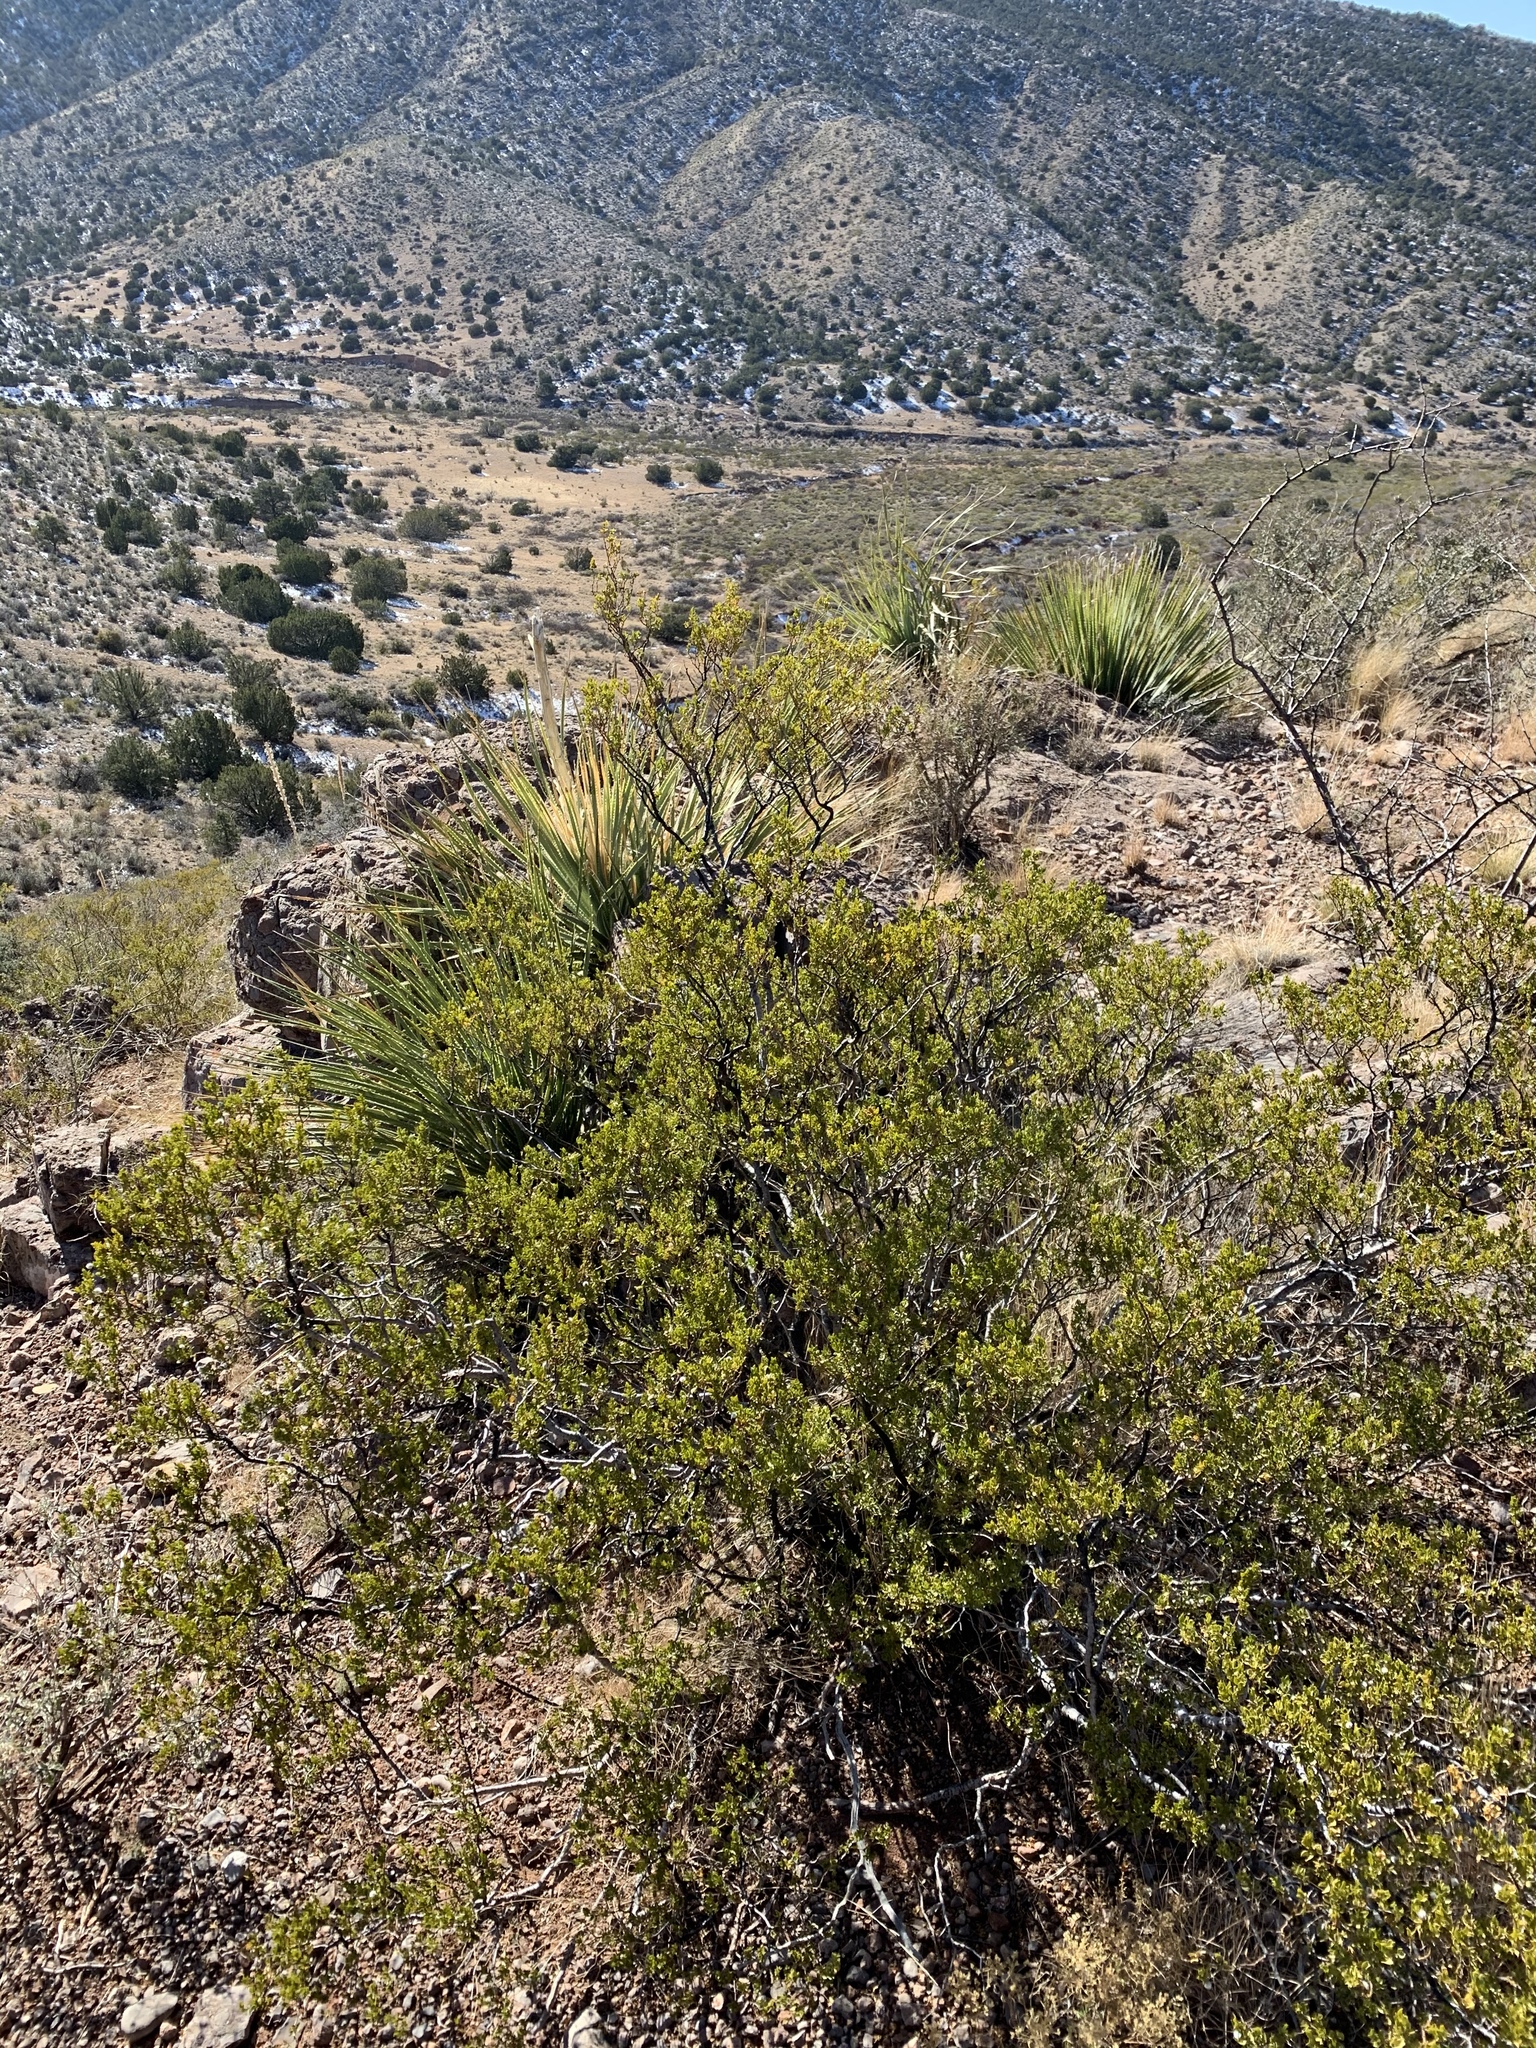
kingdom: Plantae
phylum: Tracheophyta
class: Magnoliopsida
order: Zygophyllales
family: Zygophyllaceae
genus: Larrea
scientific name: Larrea tridentata
